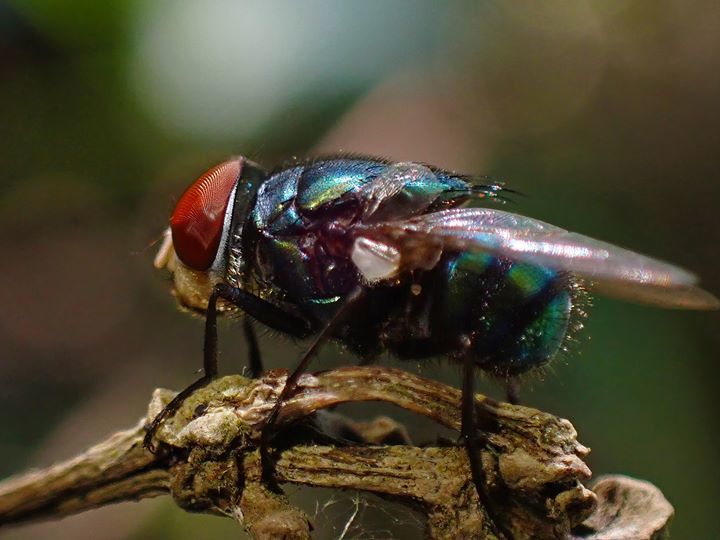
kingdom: Animalia
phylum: Arthropoda
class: Insecta
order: Diptera
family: Calliphoridae
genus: Chrysomya
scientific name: Chrysomya megacephala
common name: Blow fly
